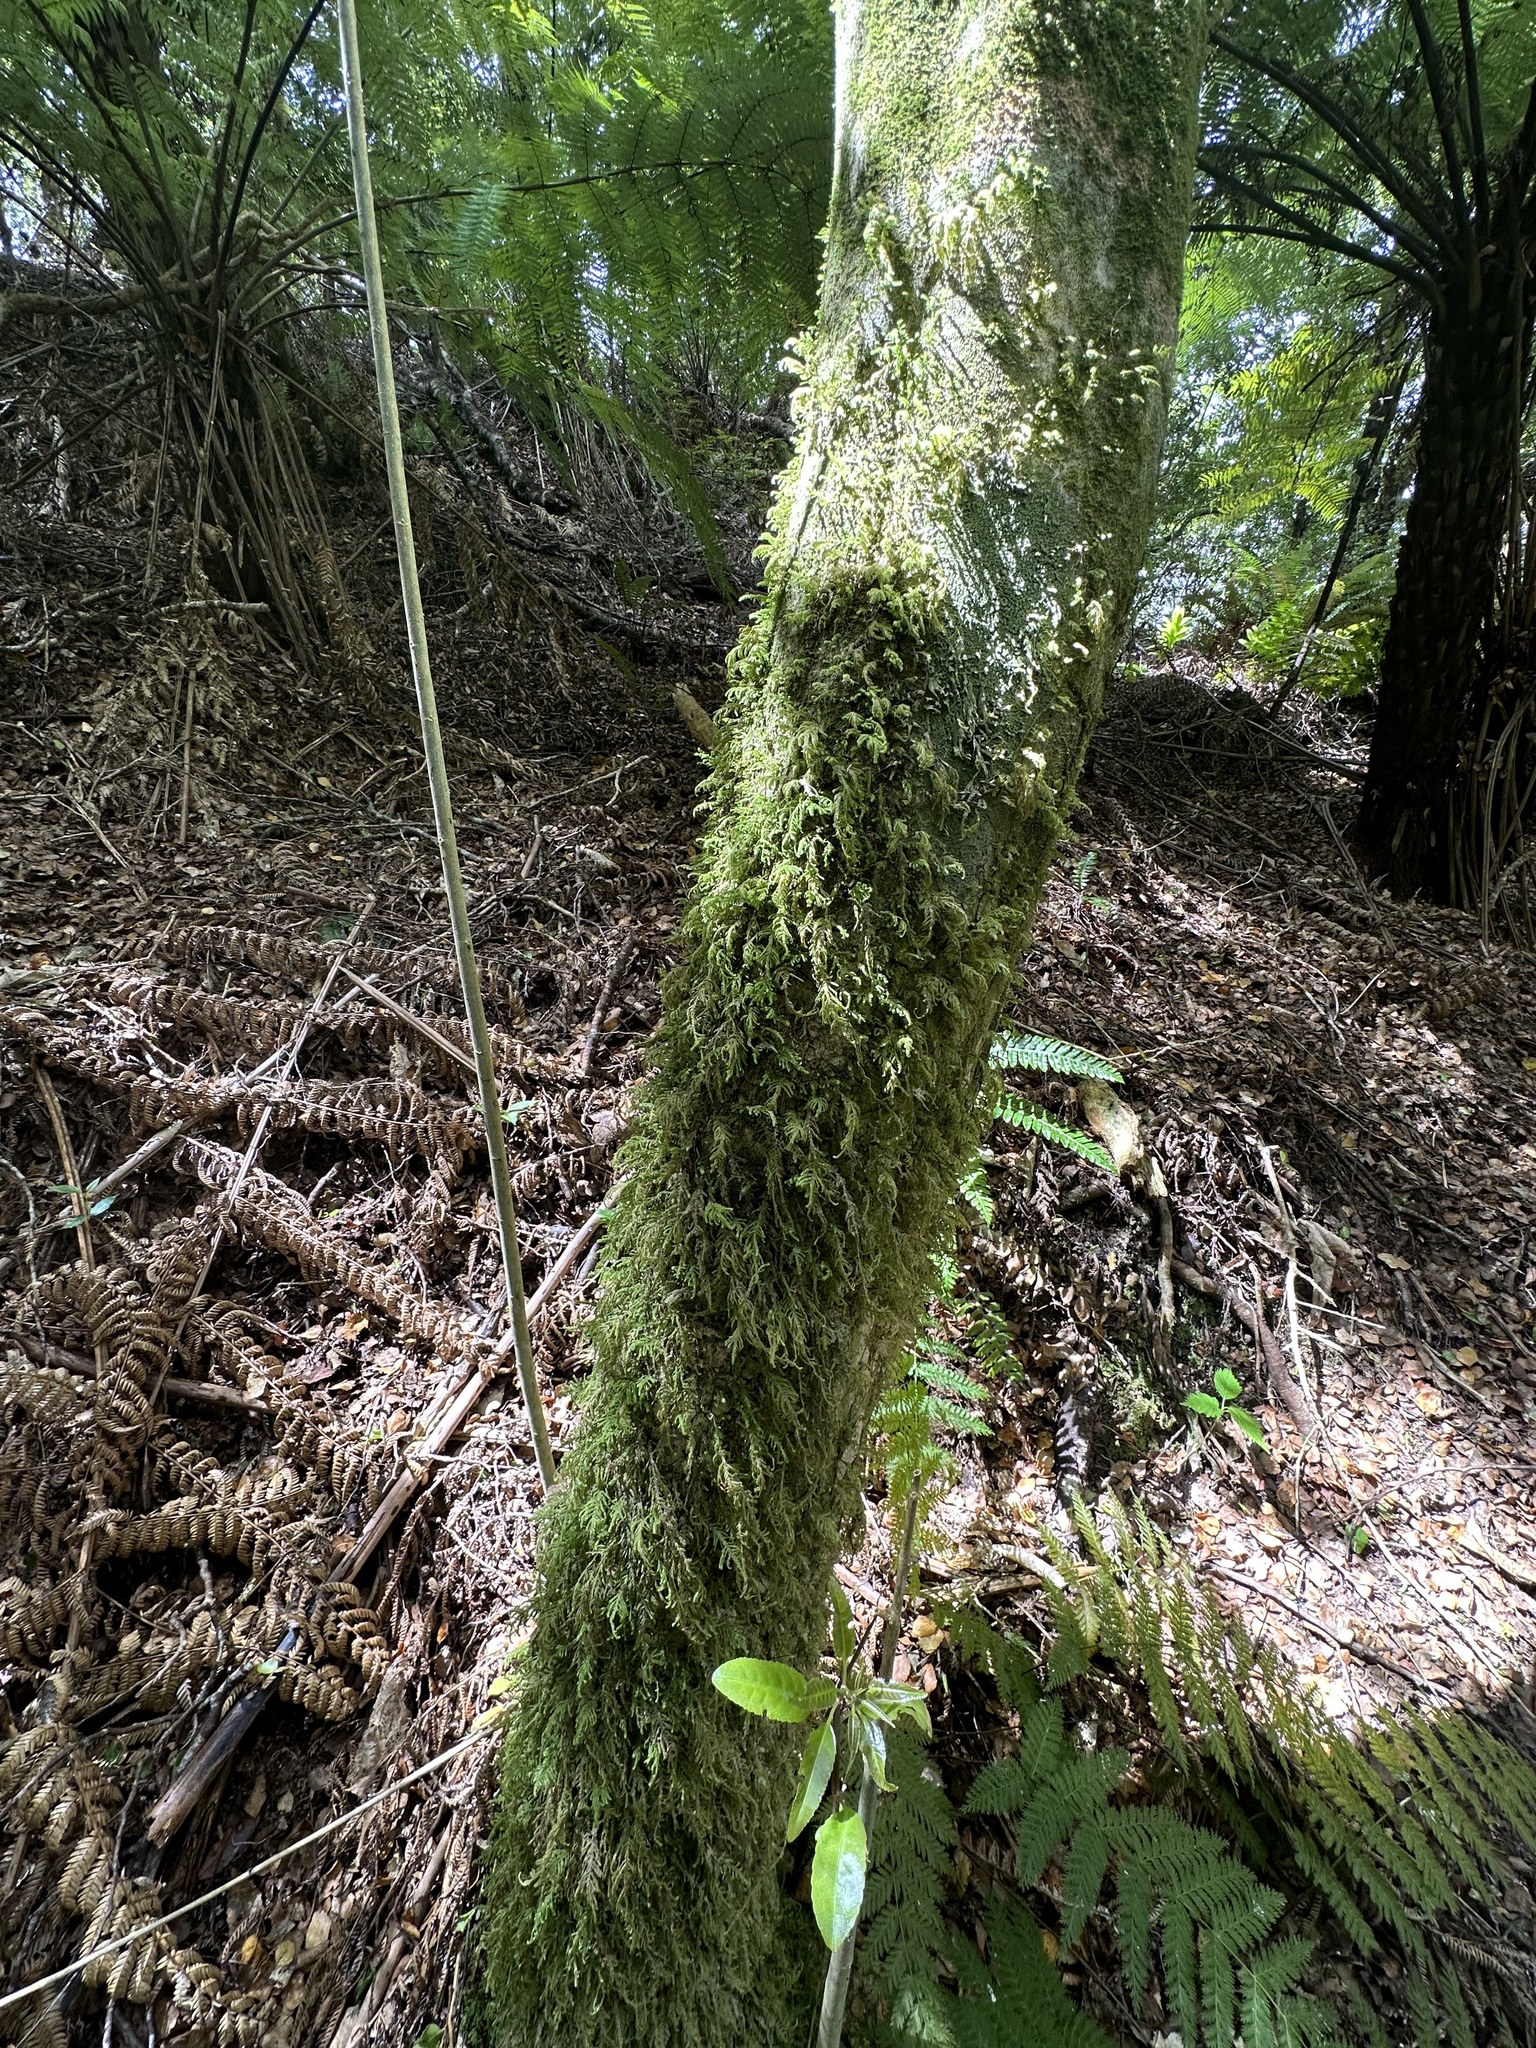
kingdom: Plantae
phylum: Bryophyta
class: Bryopsida
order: Hypopterygiales
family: Hypopterygiaceae
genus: Lopidium
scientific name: Lopidium concinnum
